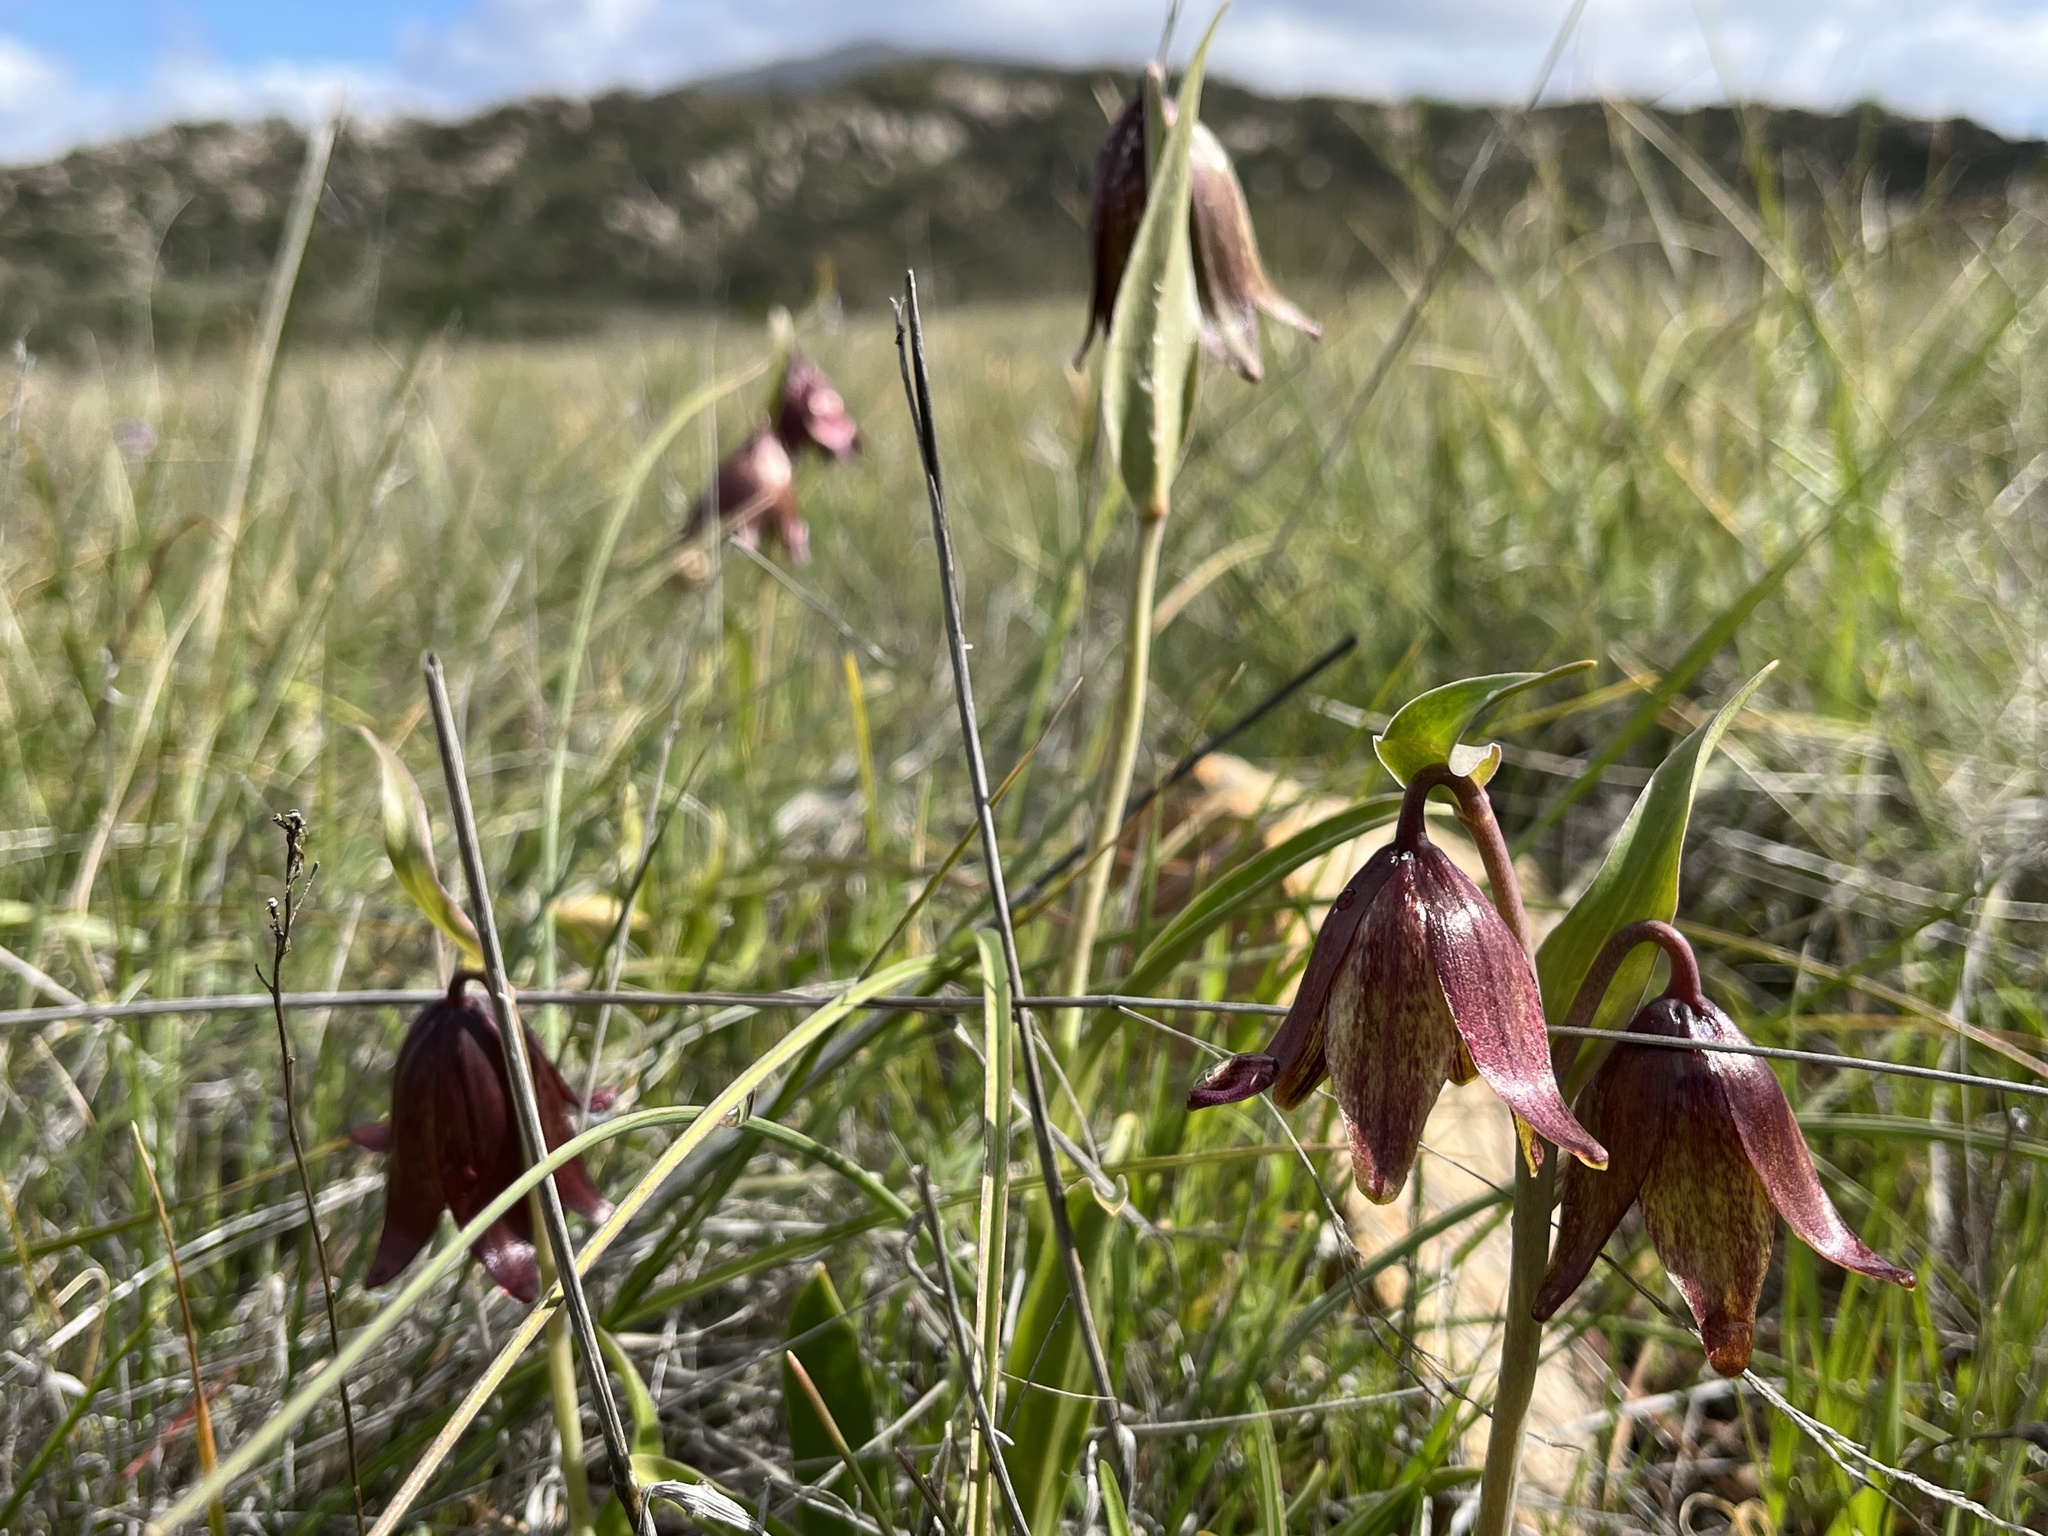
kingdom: Plantae
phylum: Tracheophyta
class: Liliopsida
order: Liliales
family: Liliaceae
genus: Fritillaria
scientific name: Fritillaria biflora
